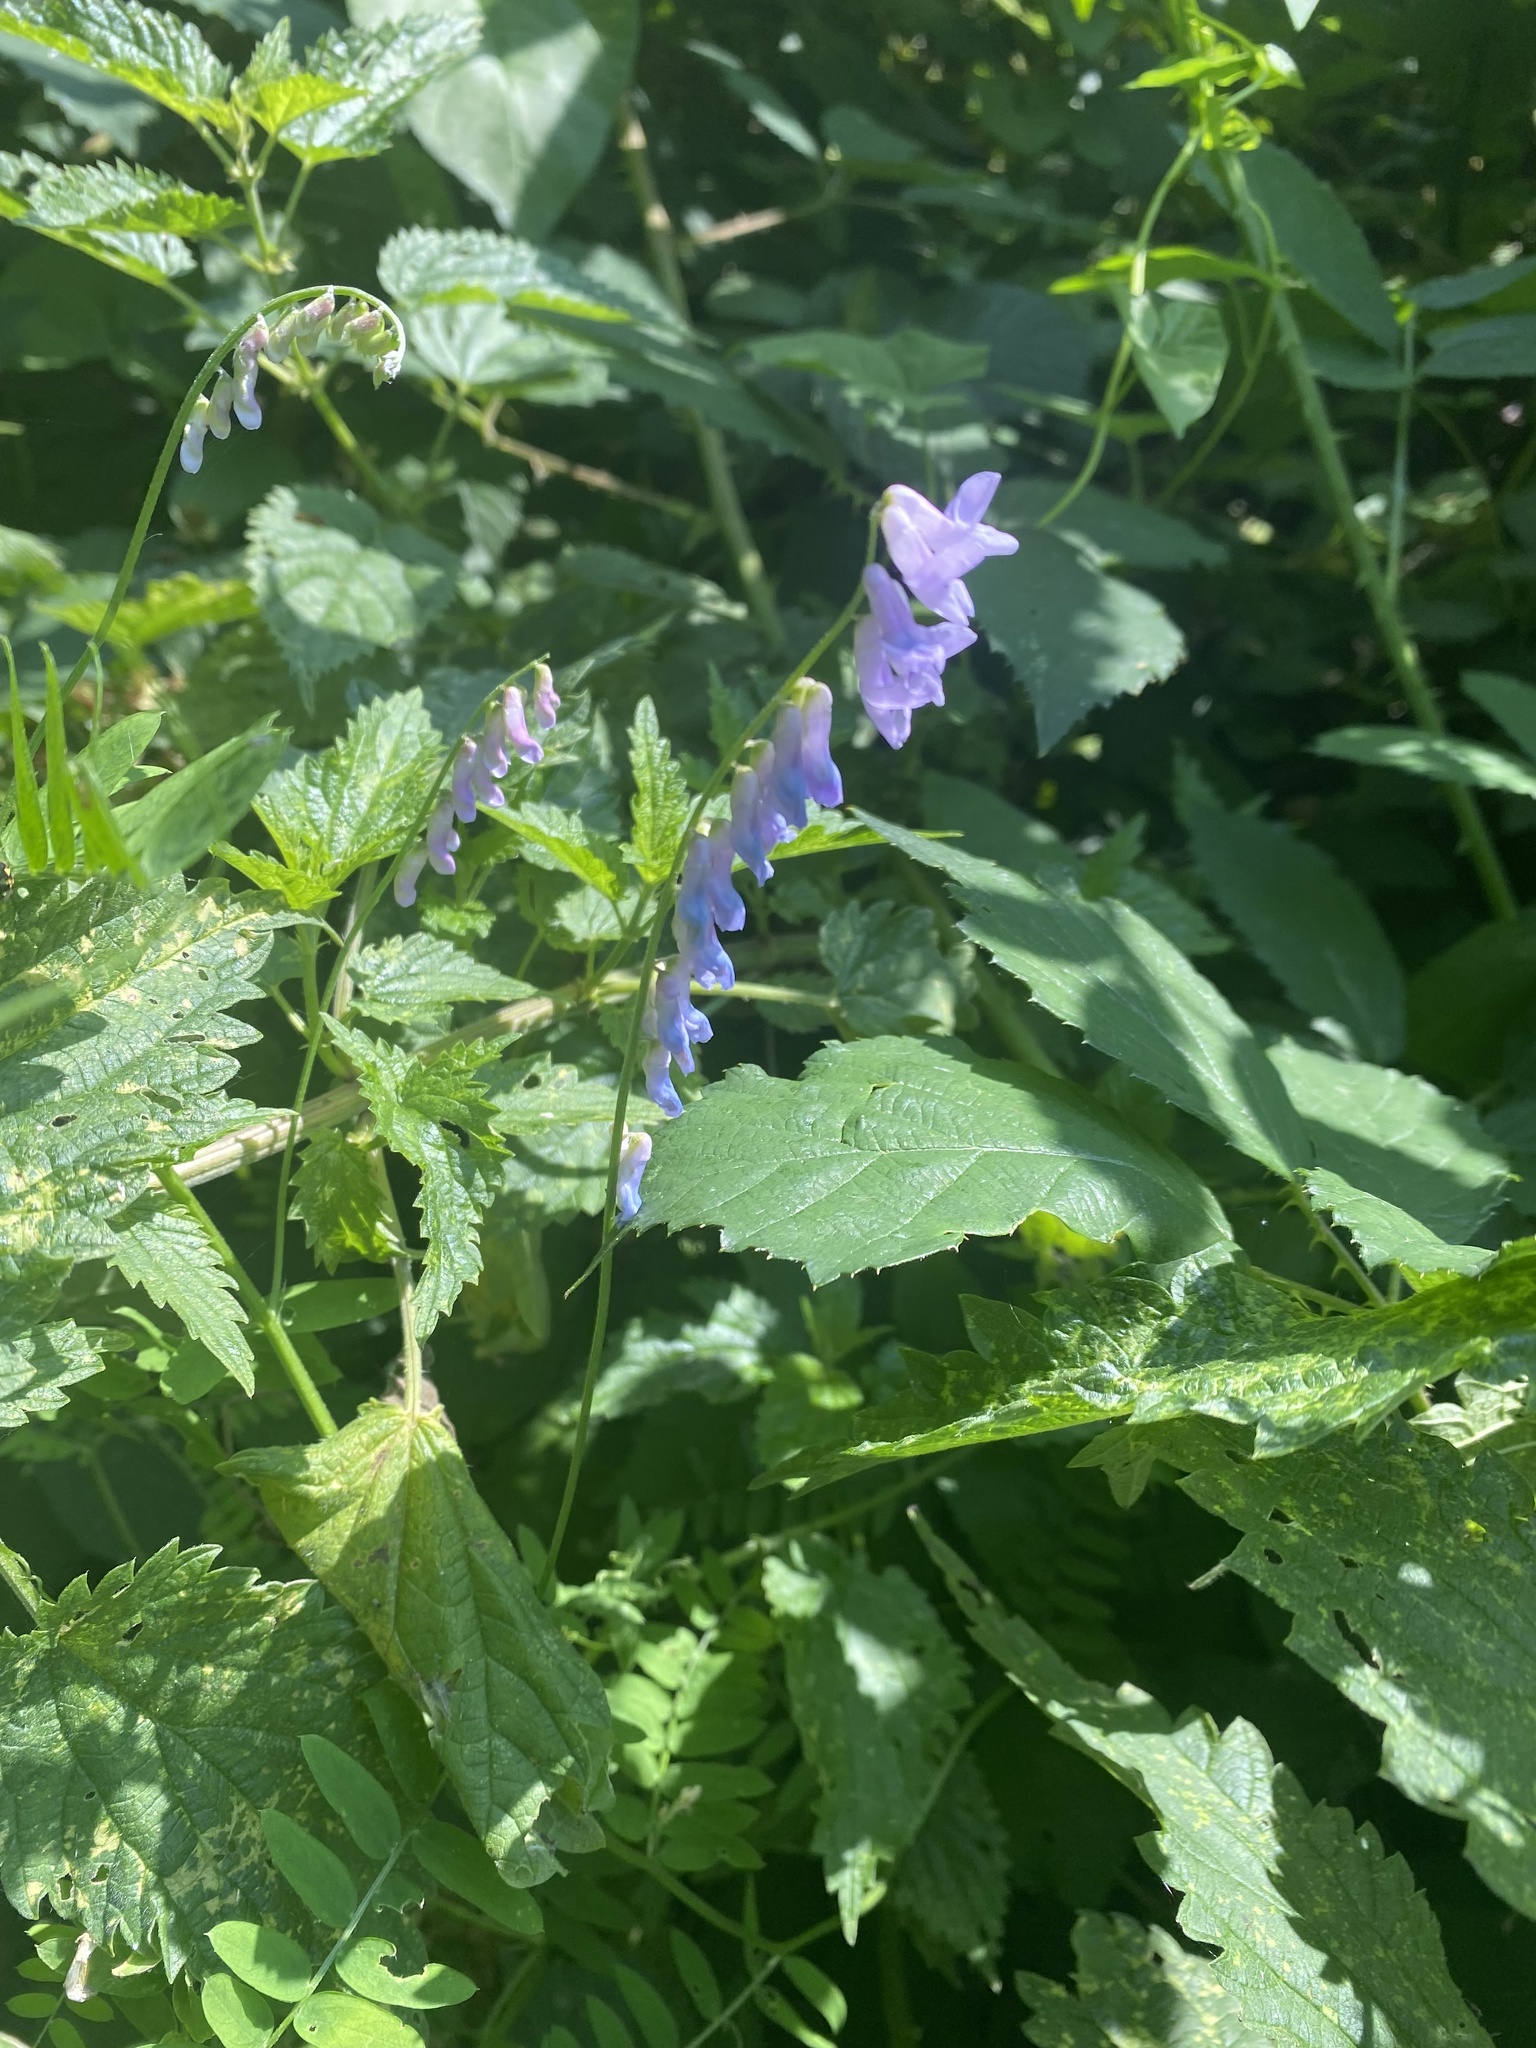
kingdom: Plantae
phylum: Tracheophyta
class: Magnoliopsida
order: Fabales
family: Fabaceae
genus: Vicia
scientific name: Vicia cracca
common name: Bird vetch
